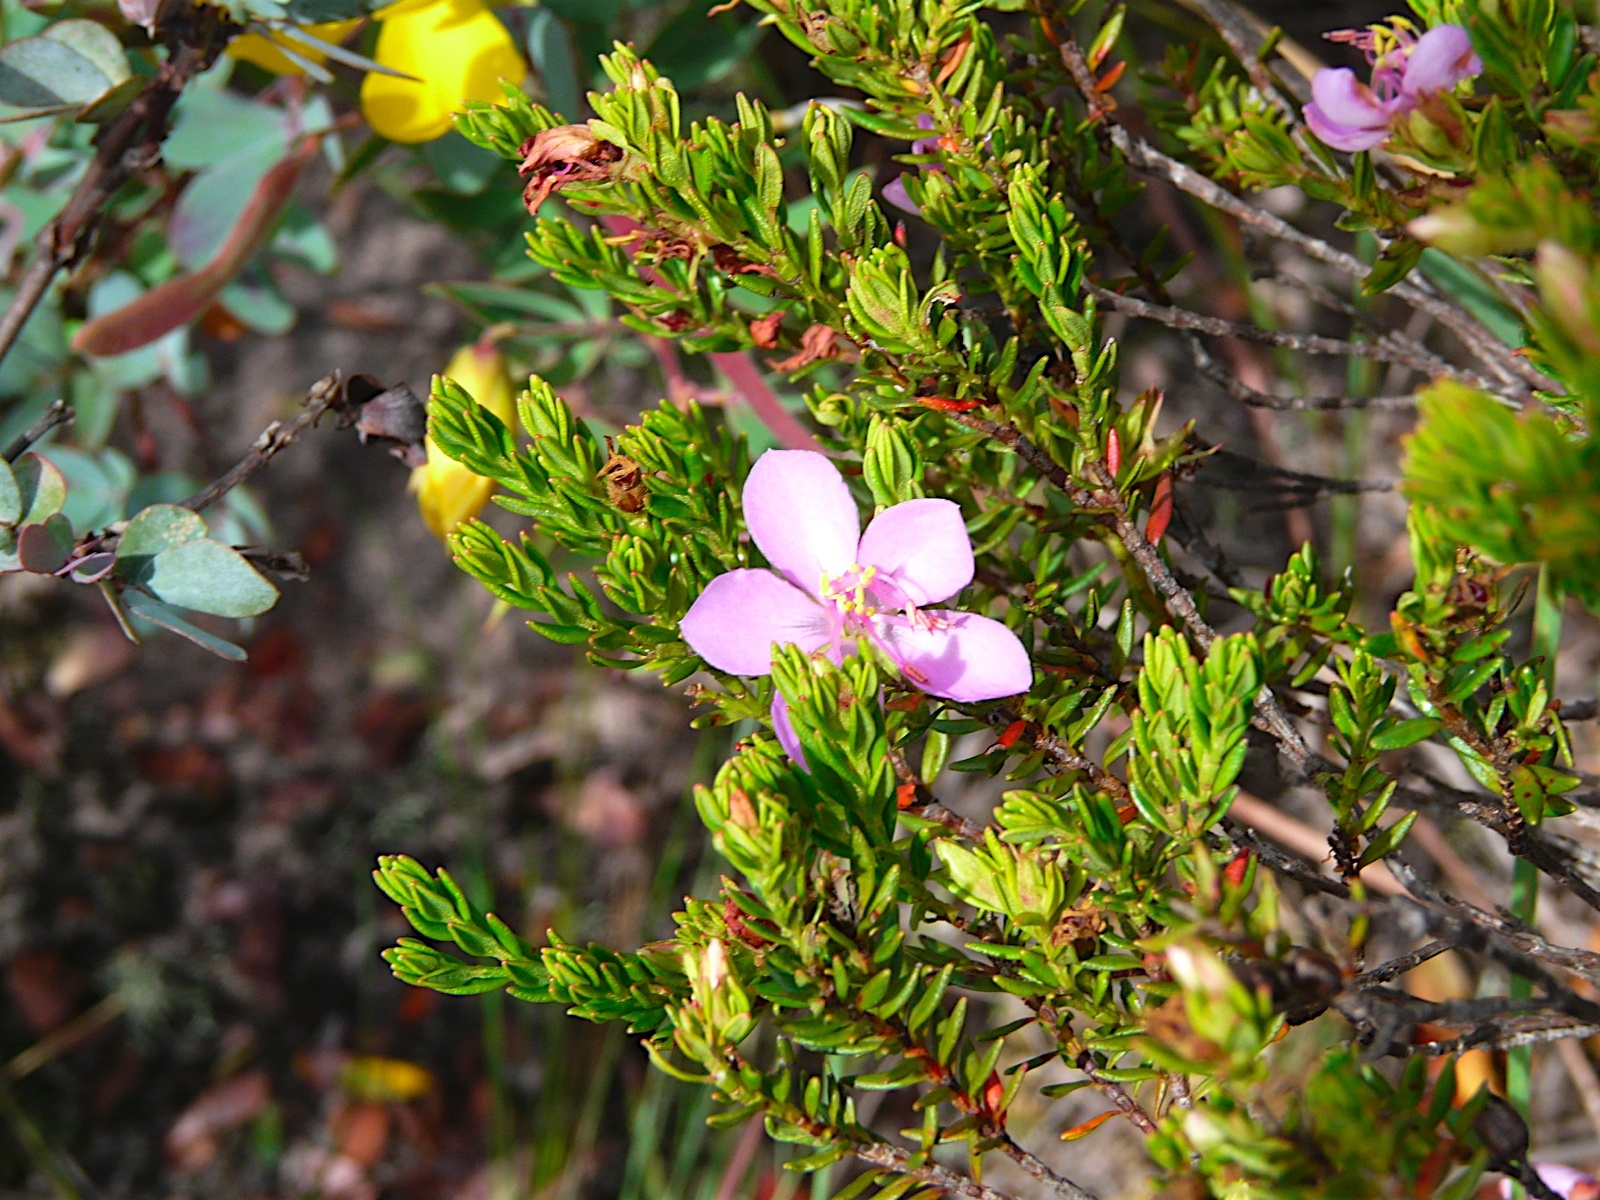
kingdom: Plantae
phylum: Tracheophyta
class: Magnoliopsida
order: Myrtales
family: Melastomataceae
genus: Microlicia
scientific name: Microlicia benthamiana
